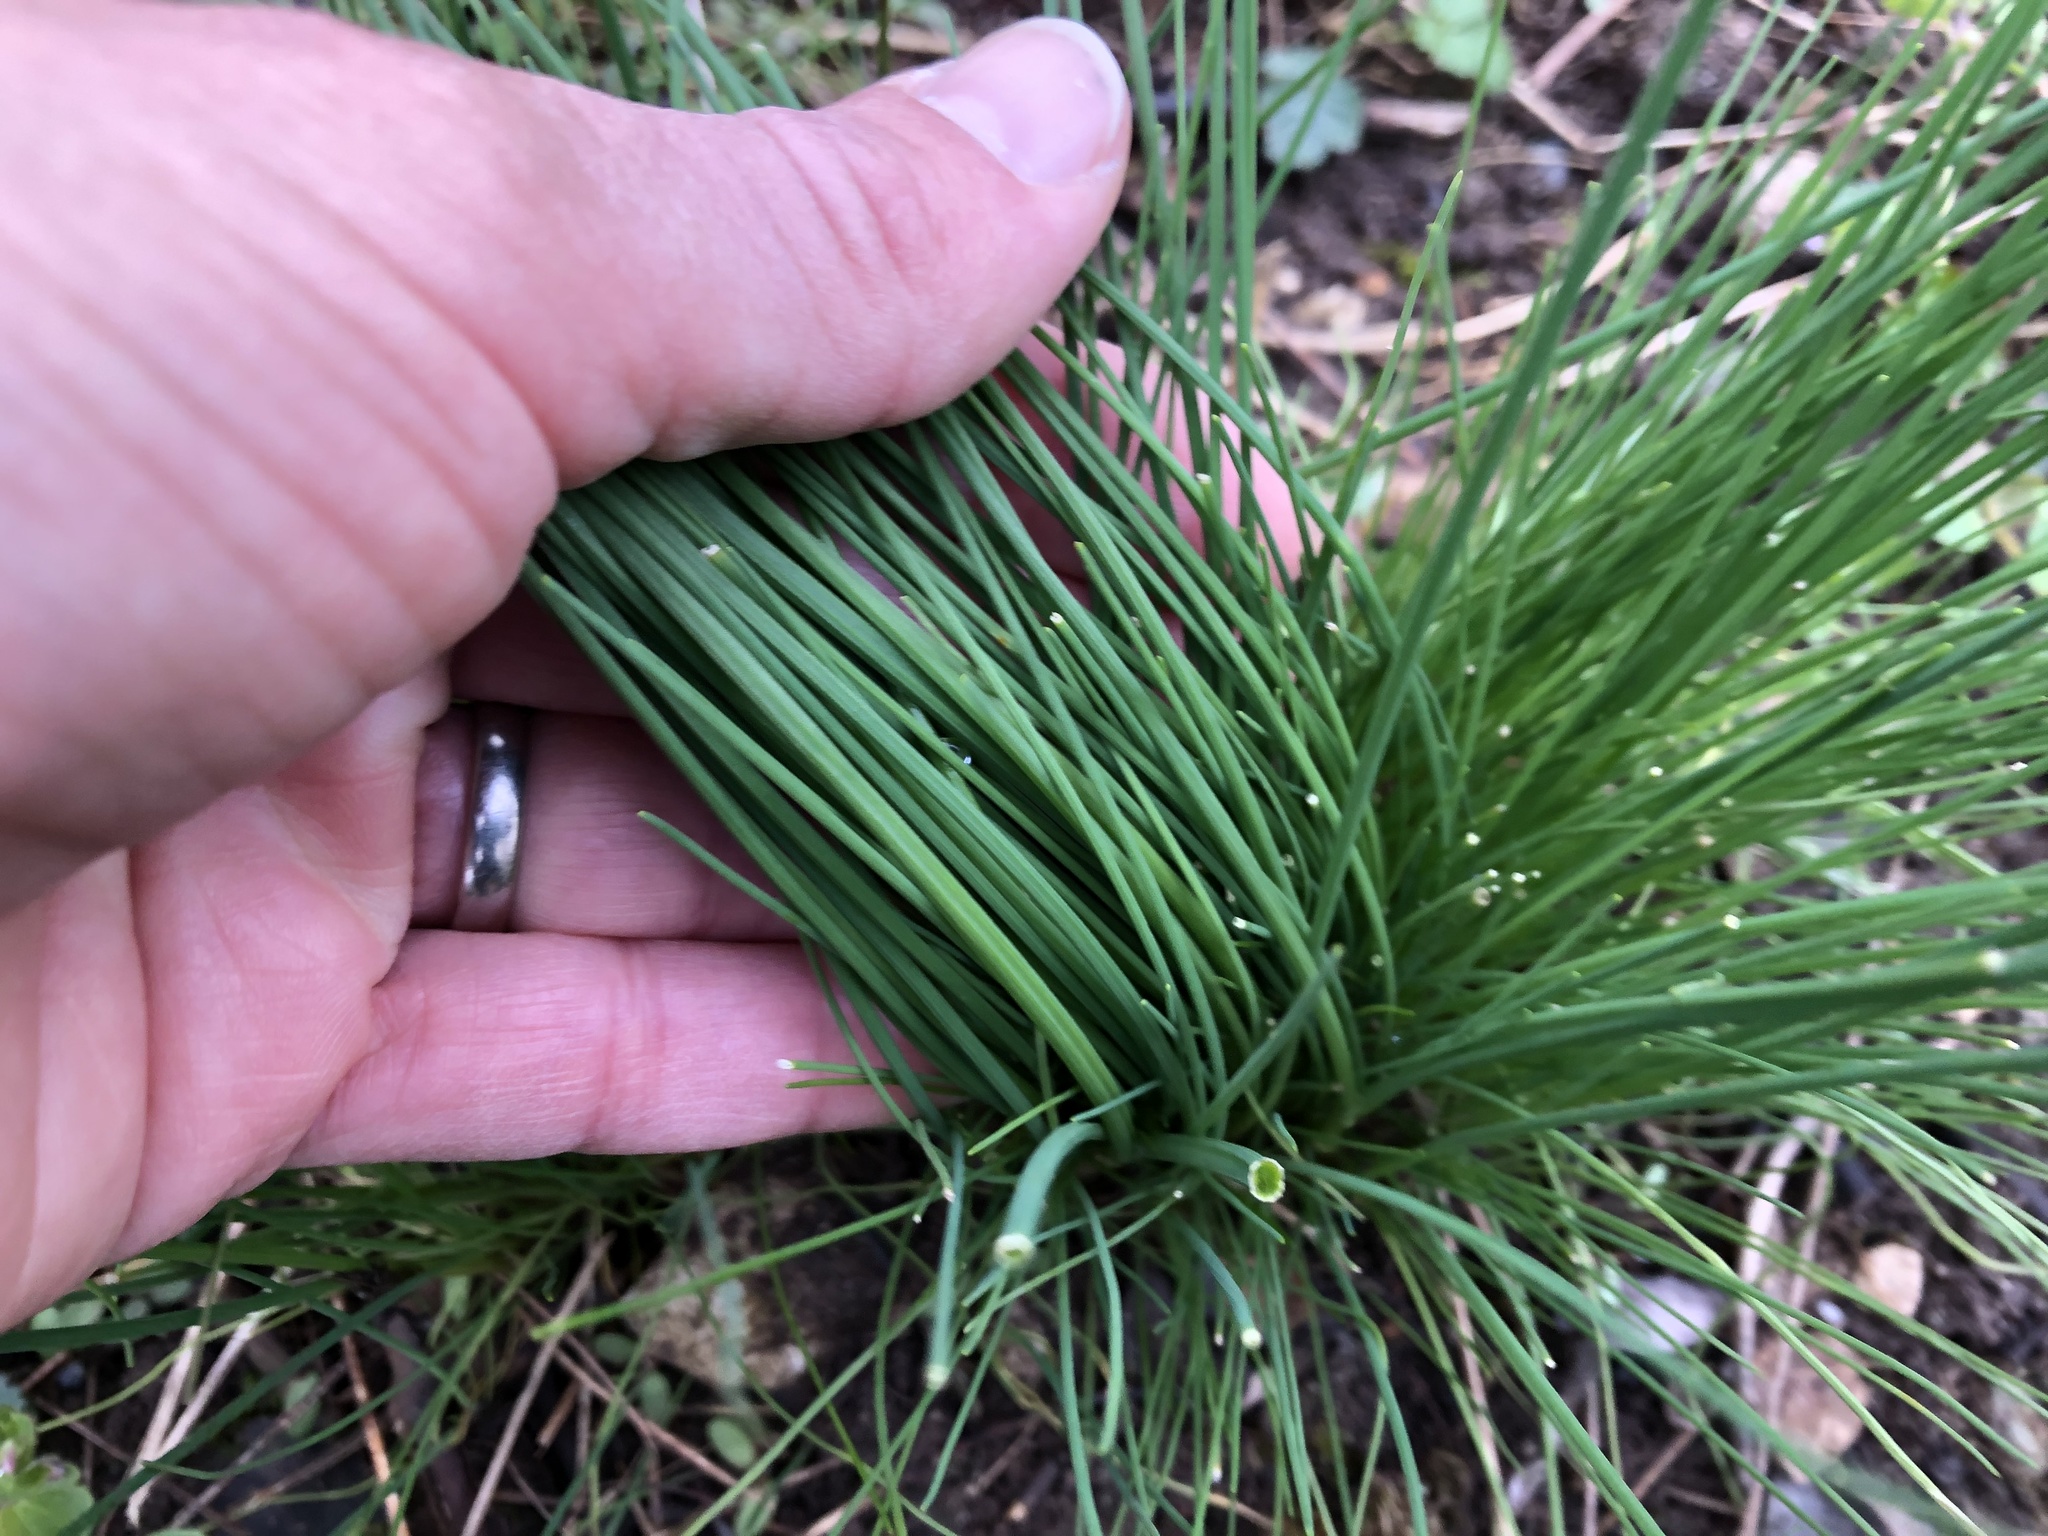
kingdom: Plantae
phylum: Tracheophyta
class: Liliopsida
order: Asparagales
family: Amaryllidaceae
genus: Allium
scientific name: Allium schoenoprasum
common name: Chives
